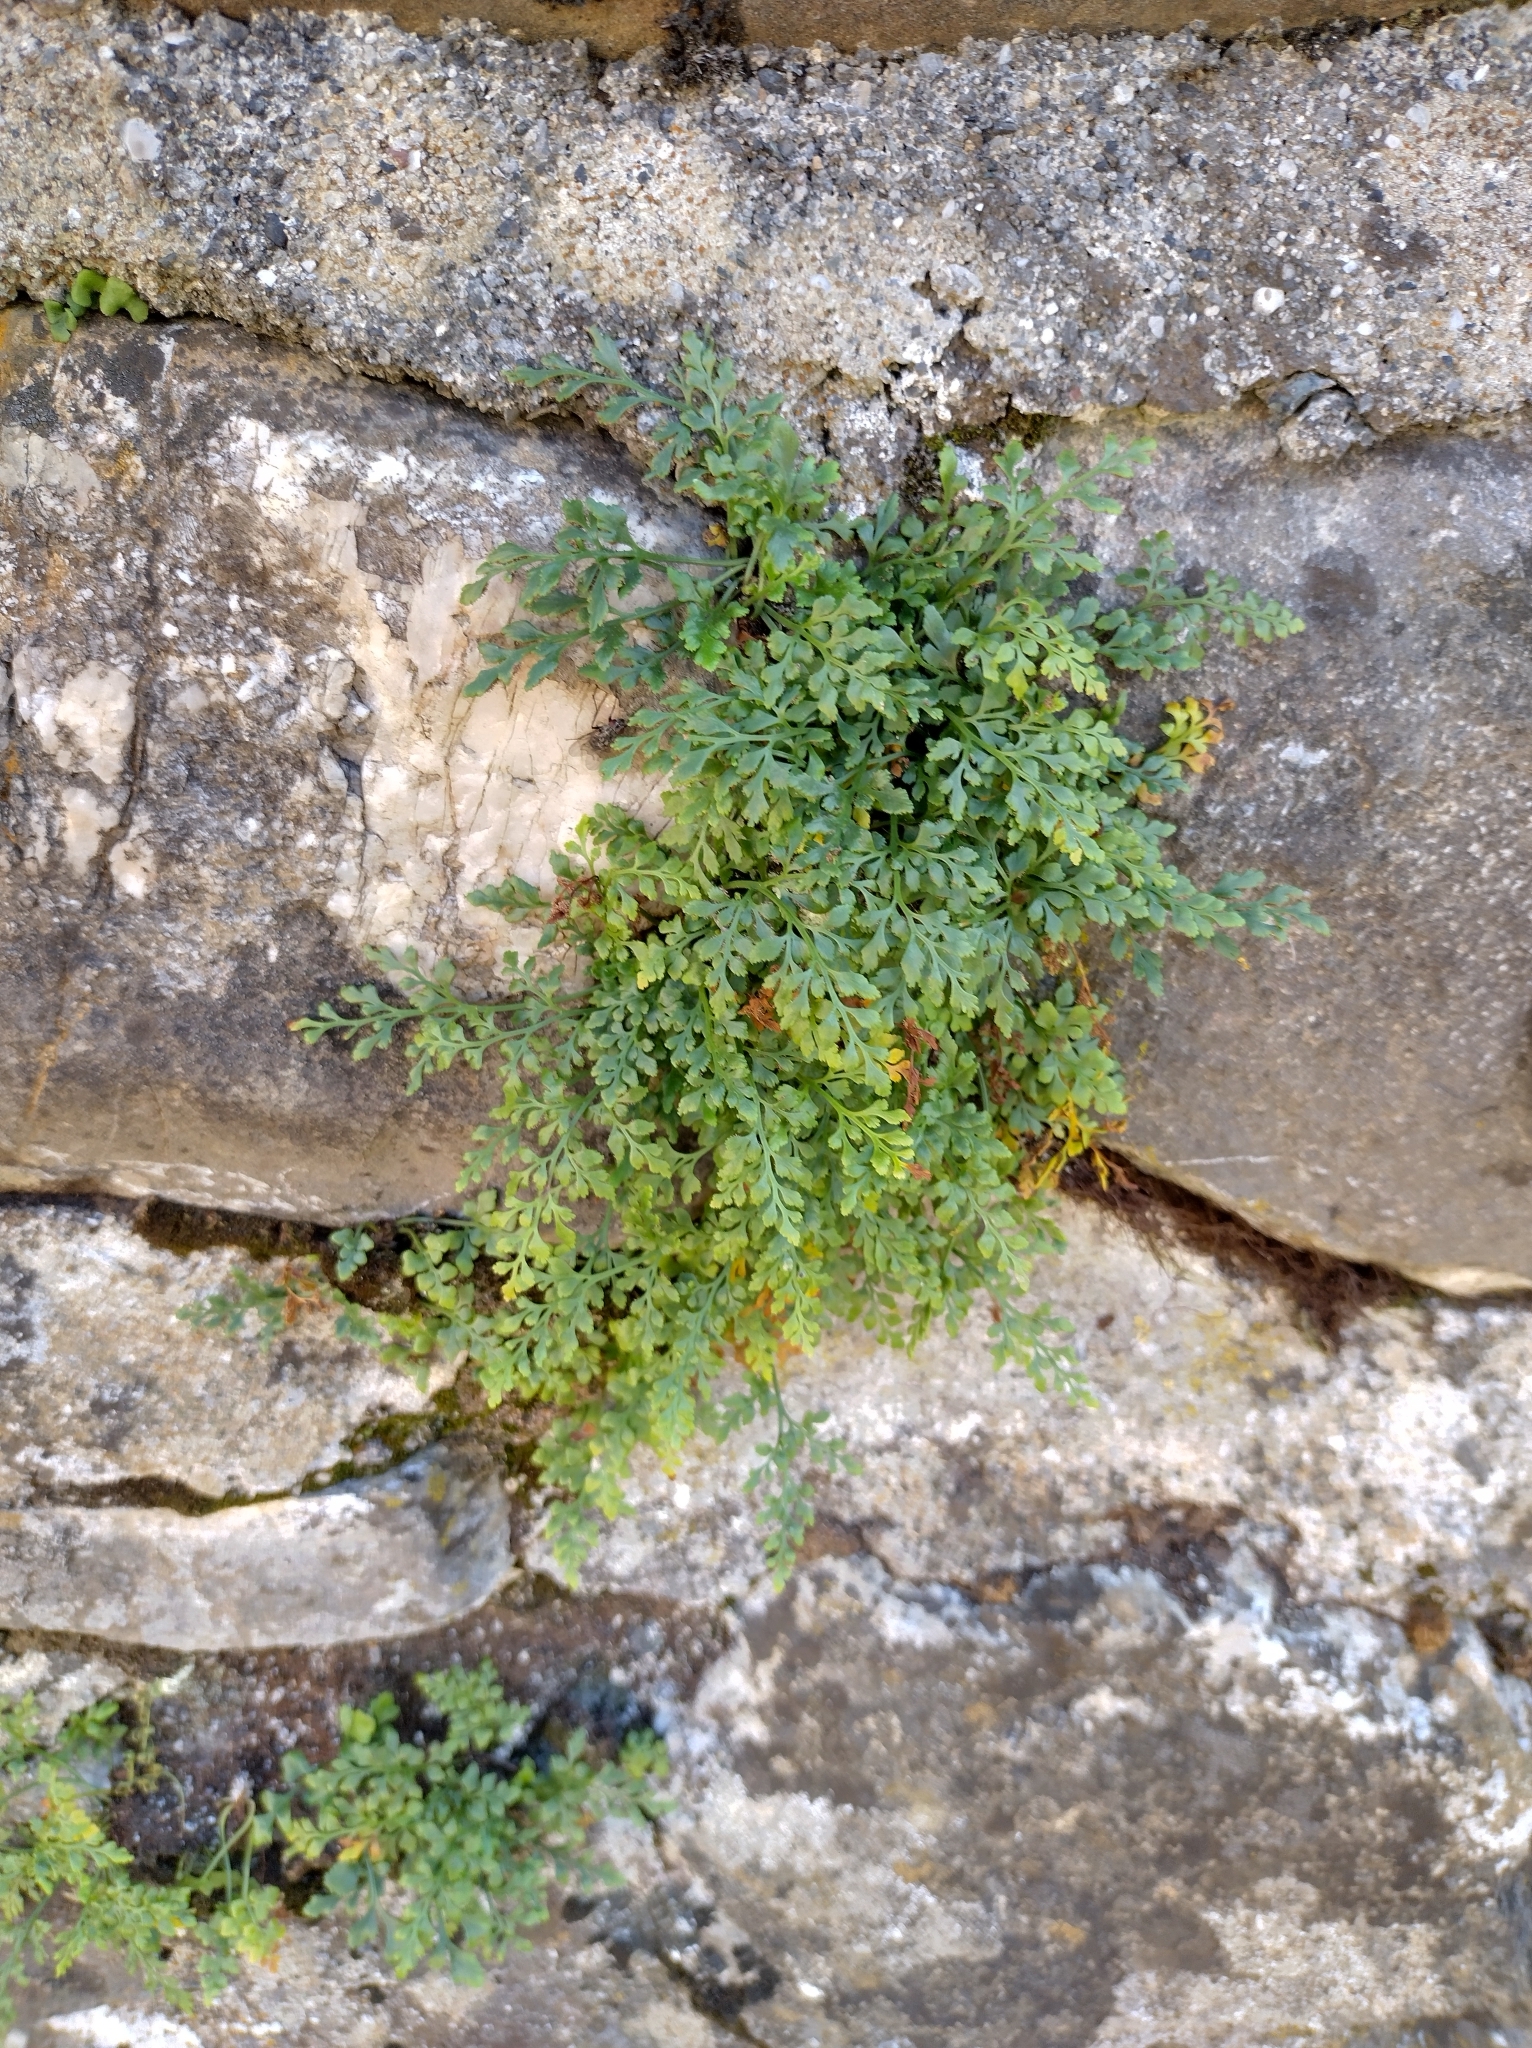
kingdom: Plantae
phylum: Tracheophyta
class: Polypodiopsida
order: Polypodiales
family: Aspleniaceae
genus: Asplenium
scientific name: Asplenium ruta-muraria
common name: Wall-rue
